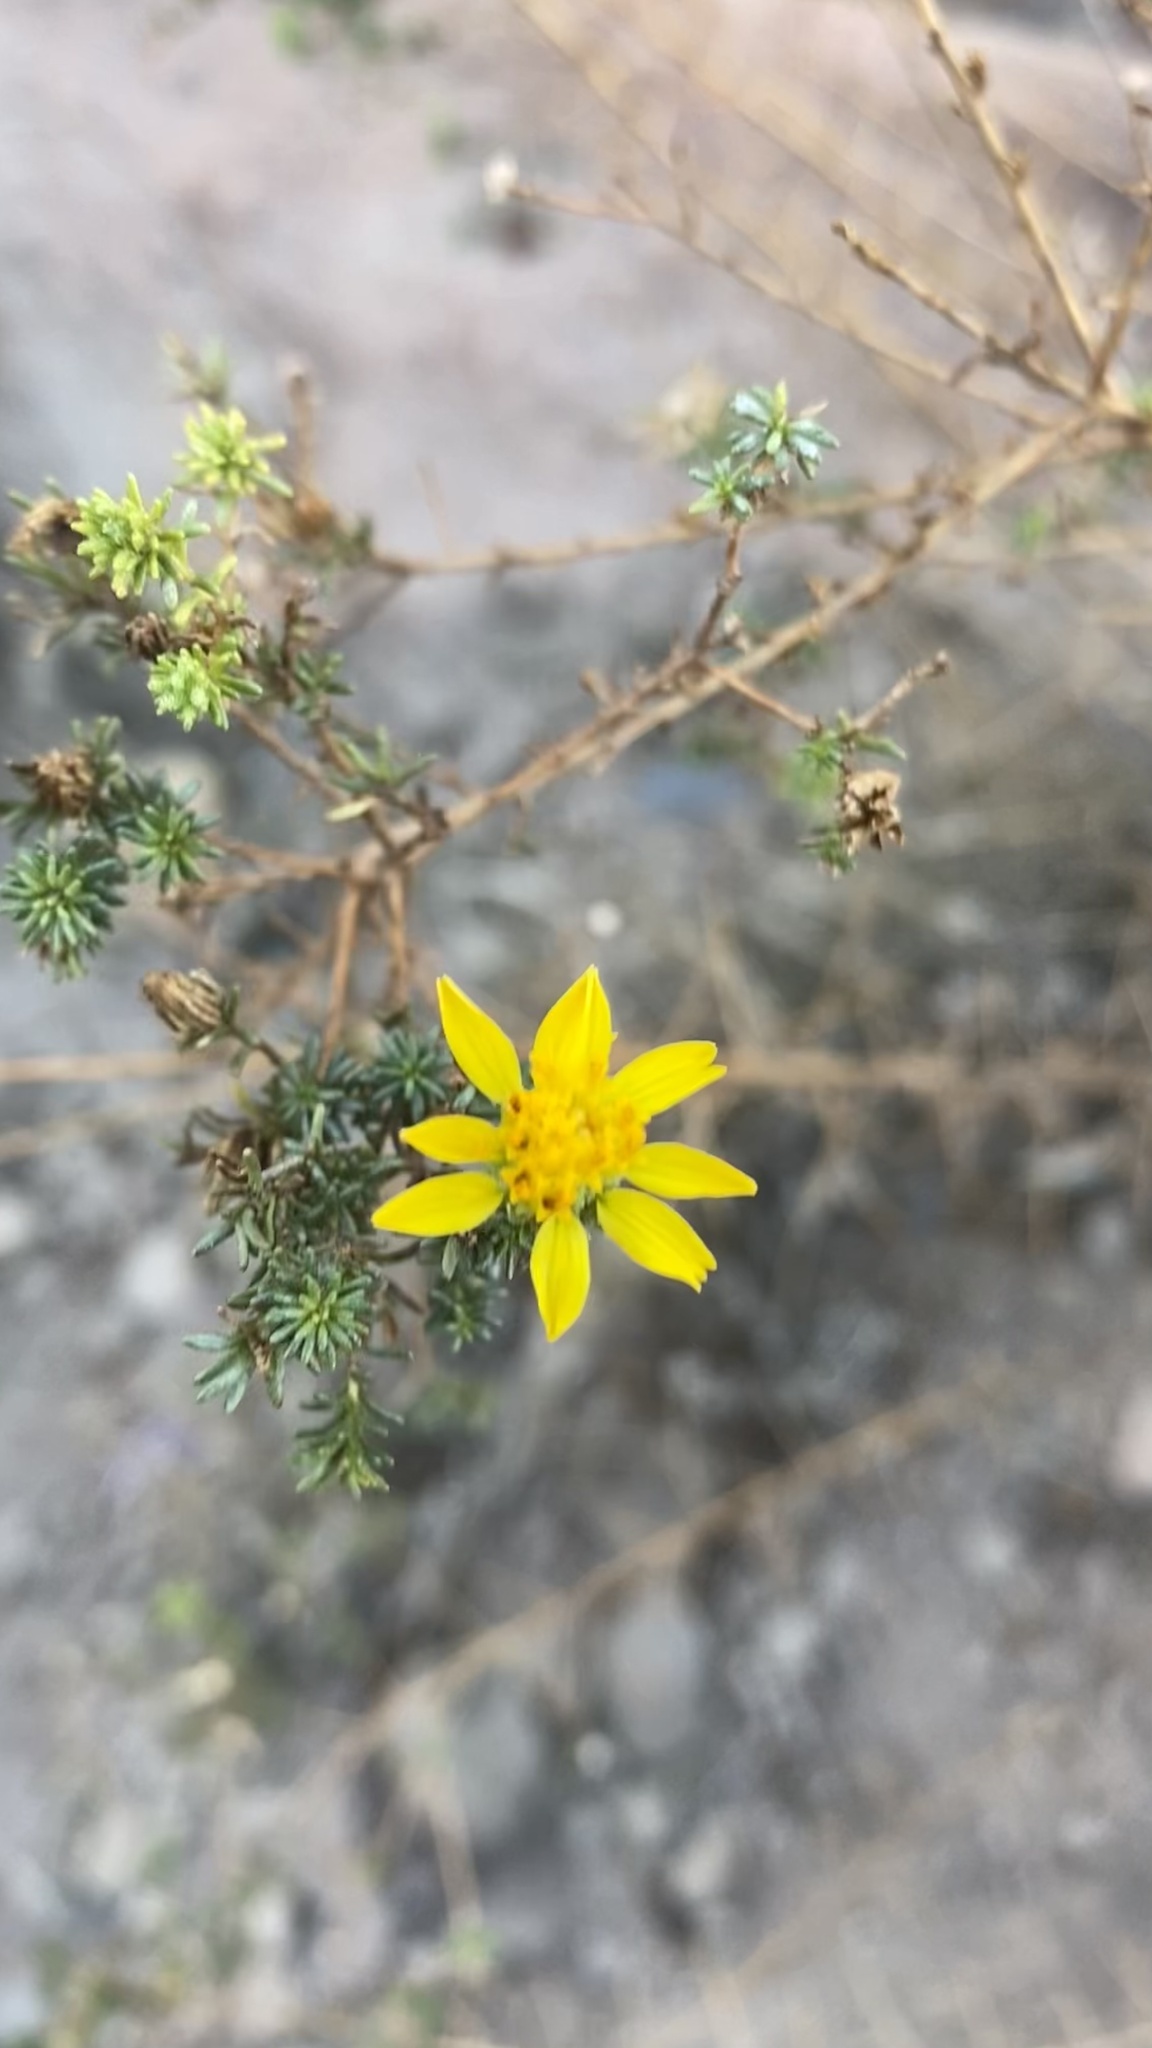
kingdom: Plantae
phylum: Tracheophyta
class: Magnoliopsida
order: Asterales
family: Asteraceae
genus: Deinandra
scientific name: Deinandra minthornii
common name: Santa susana tarplant
